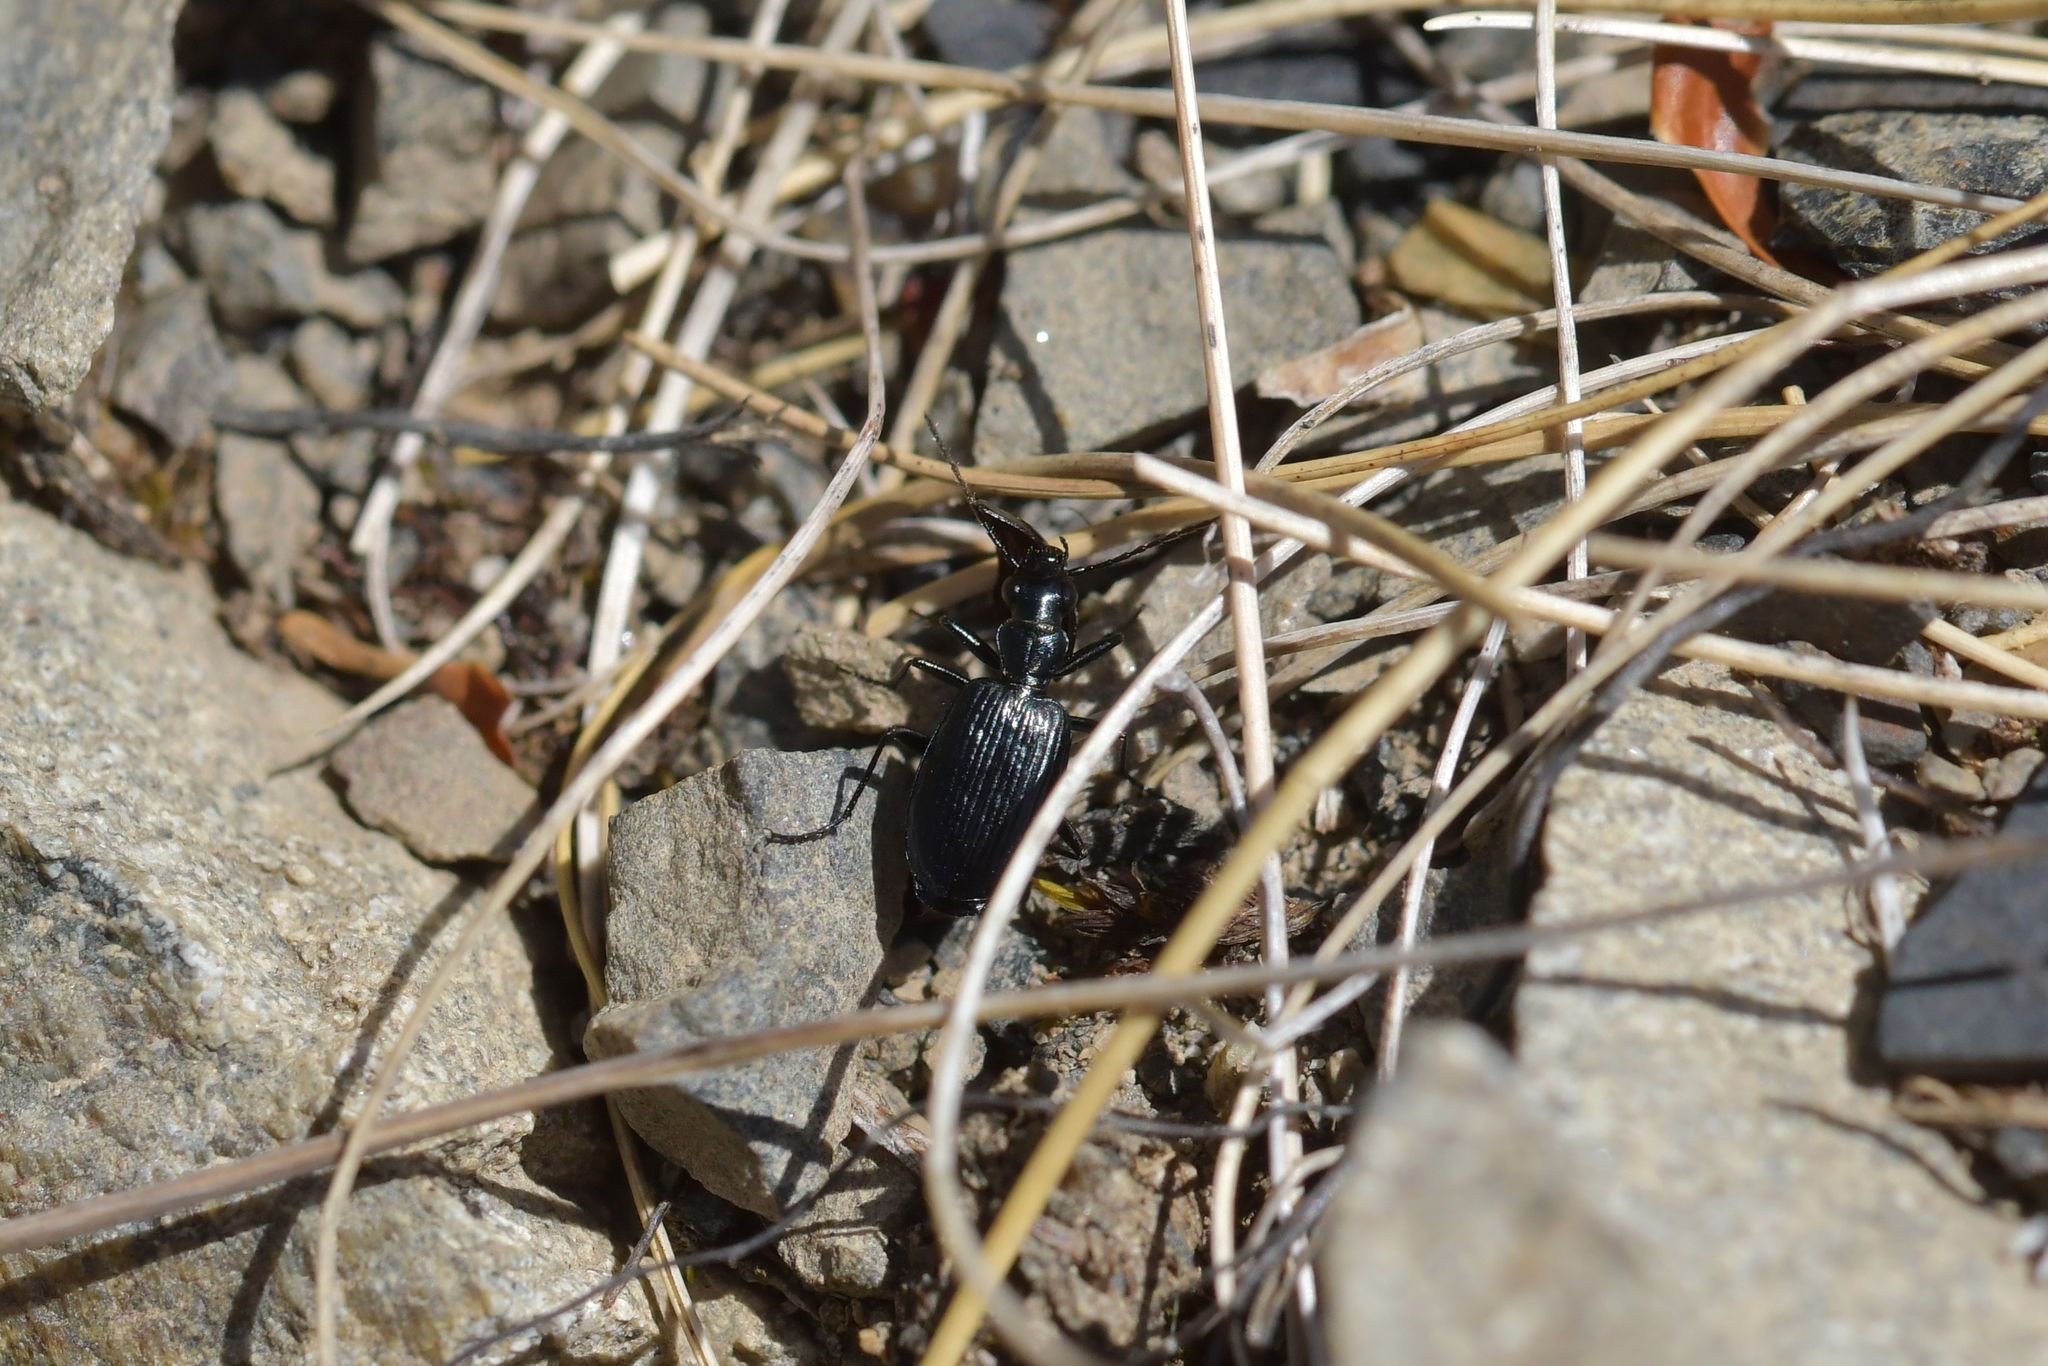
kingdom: Animalia
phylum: Arthropoda
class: Insecta
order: Coleoptera
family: Carabidae
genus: Actenonyx
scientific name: Actenonyx bembidioides
